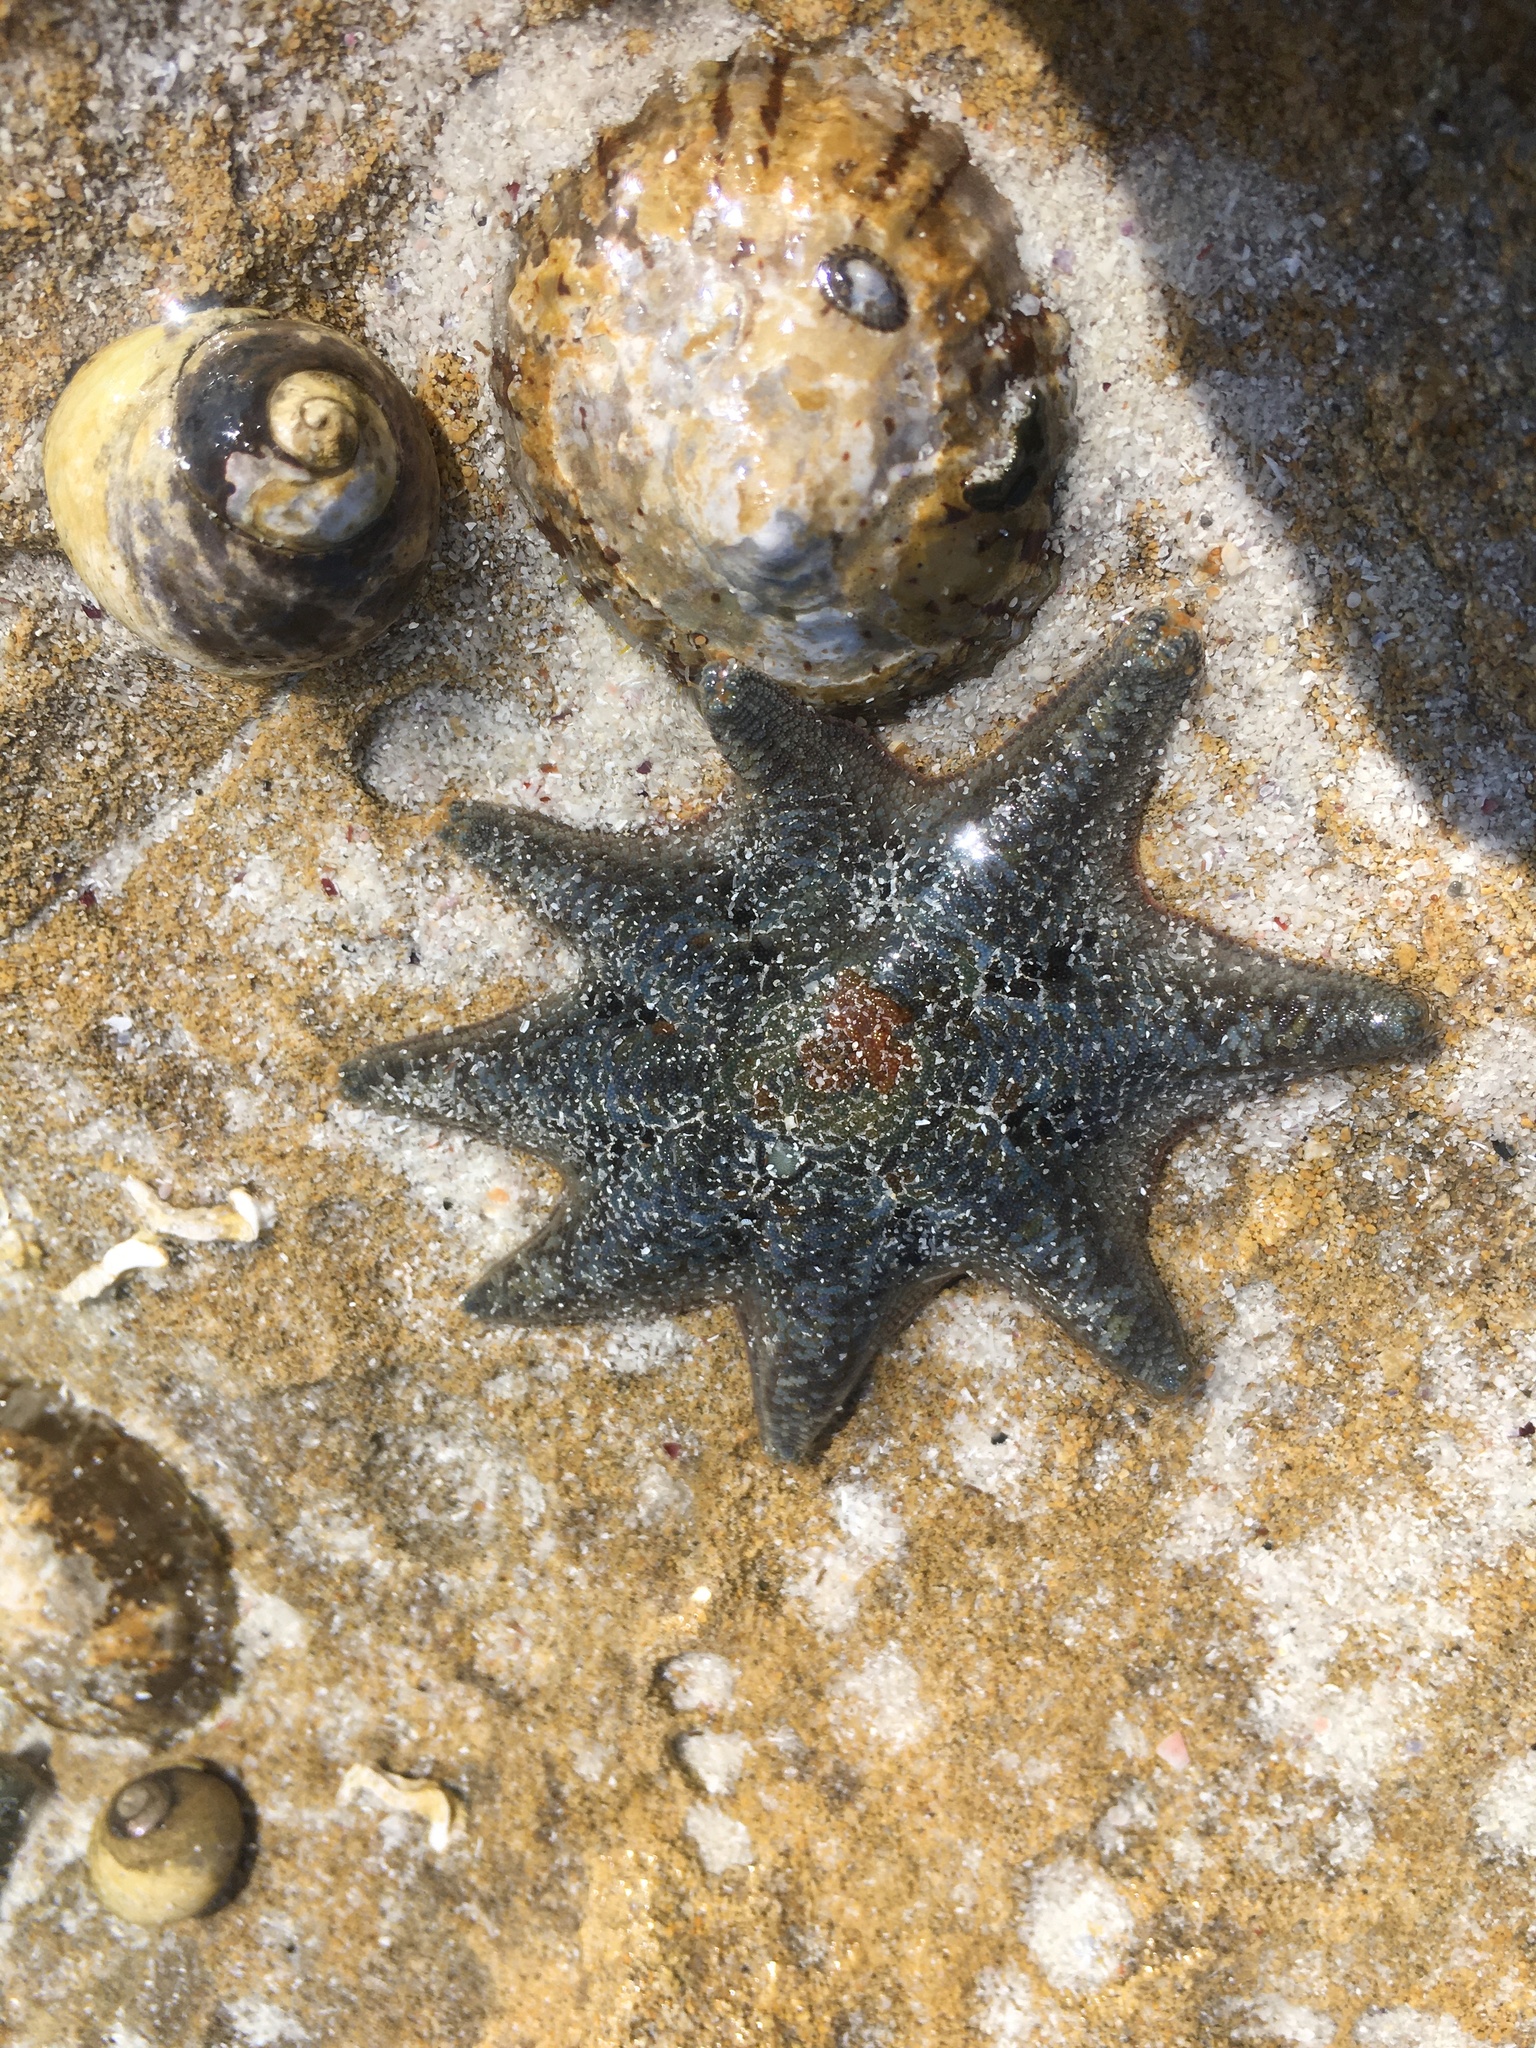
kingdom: Animalia
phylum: Echinodermata
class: Asteroidea
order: Valvatida
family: Asterinidae
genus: Meridiastra
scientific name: Meridiastra calcar
